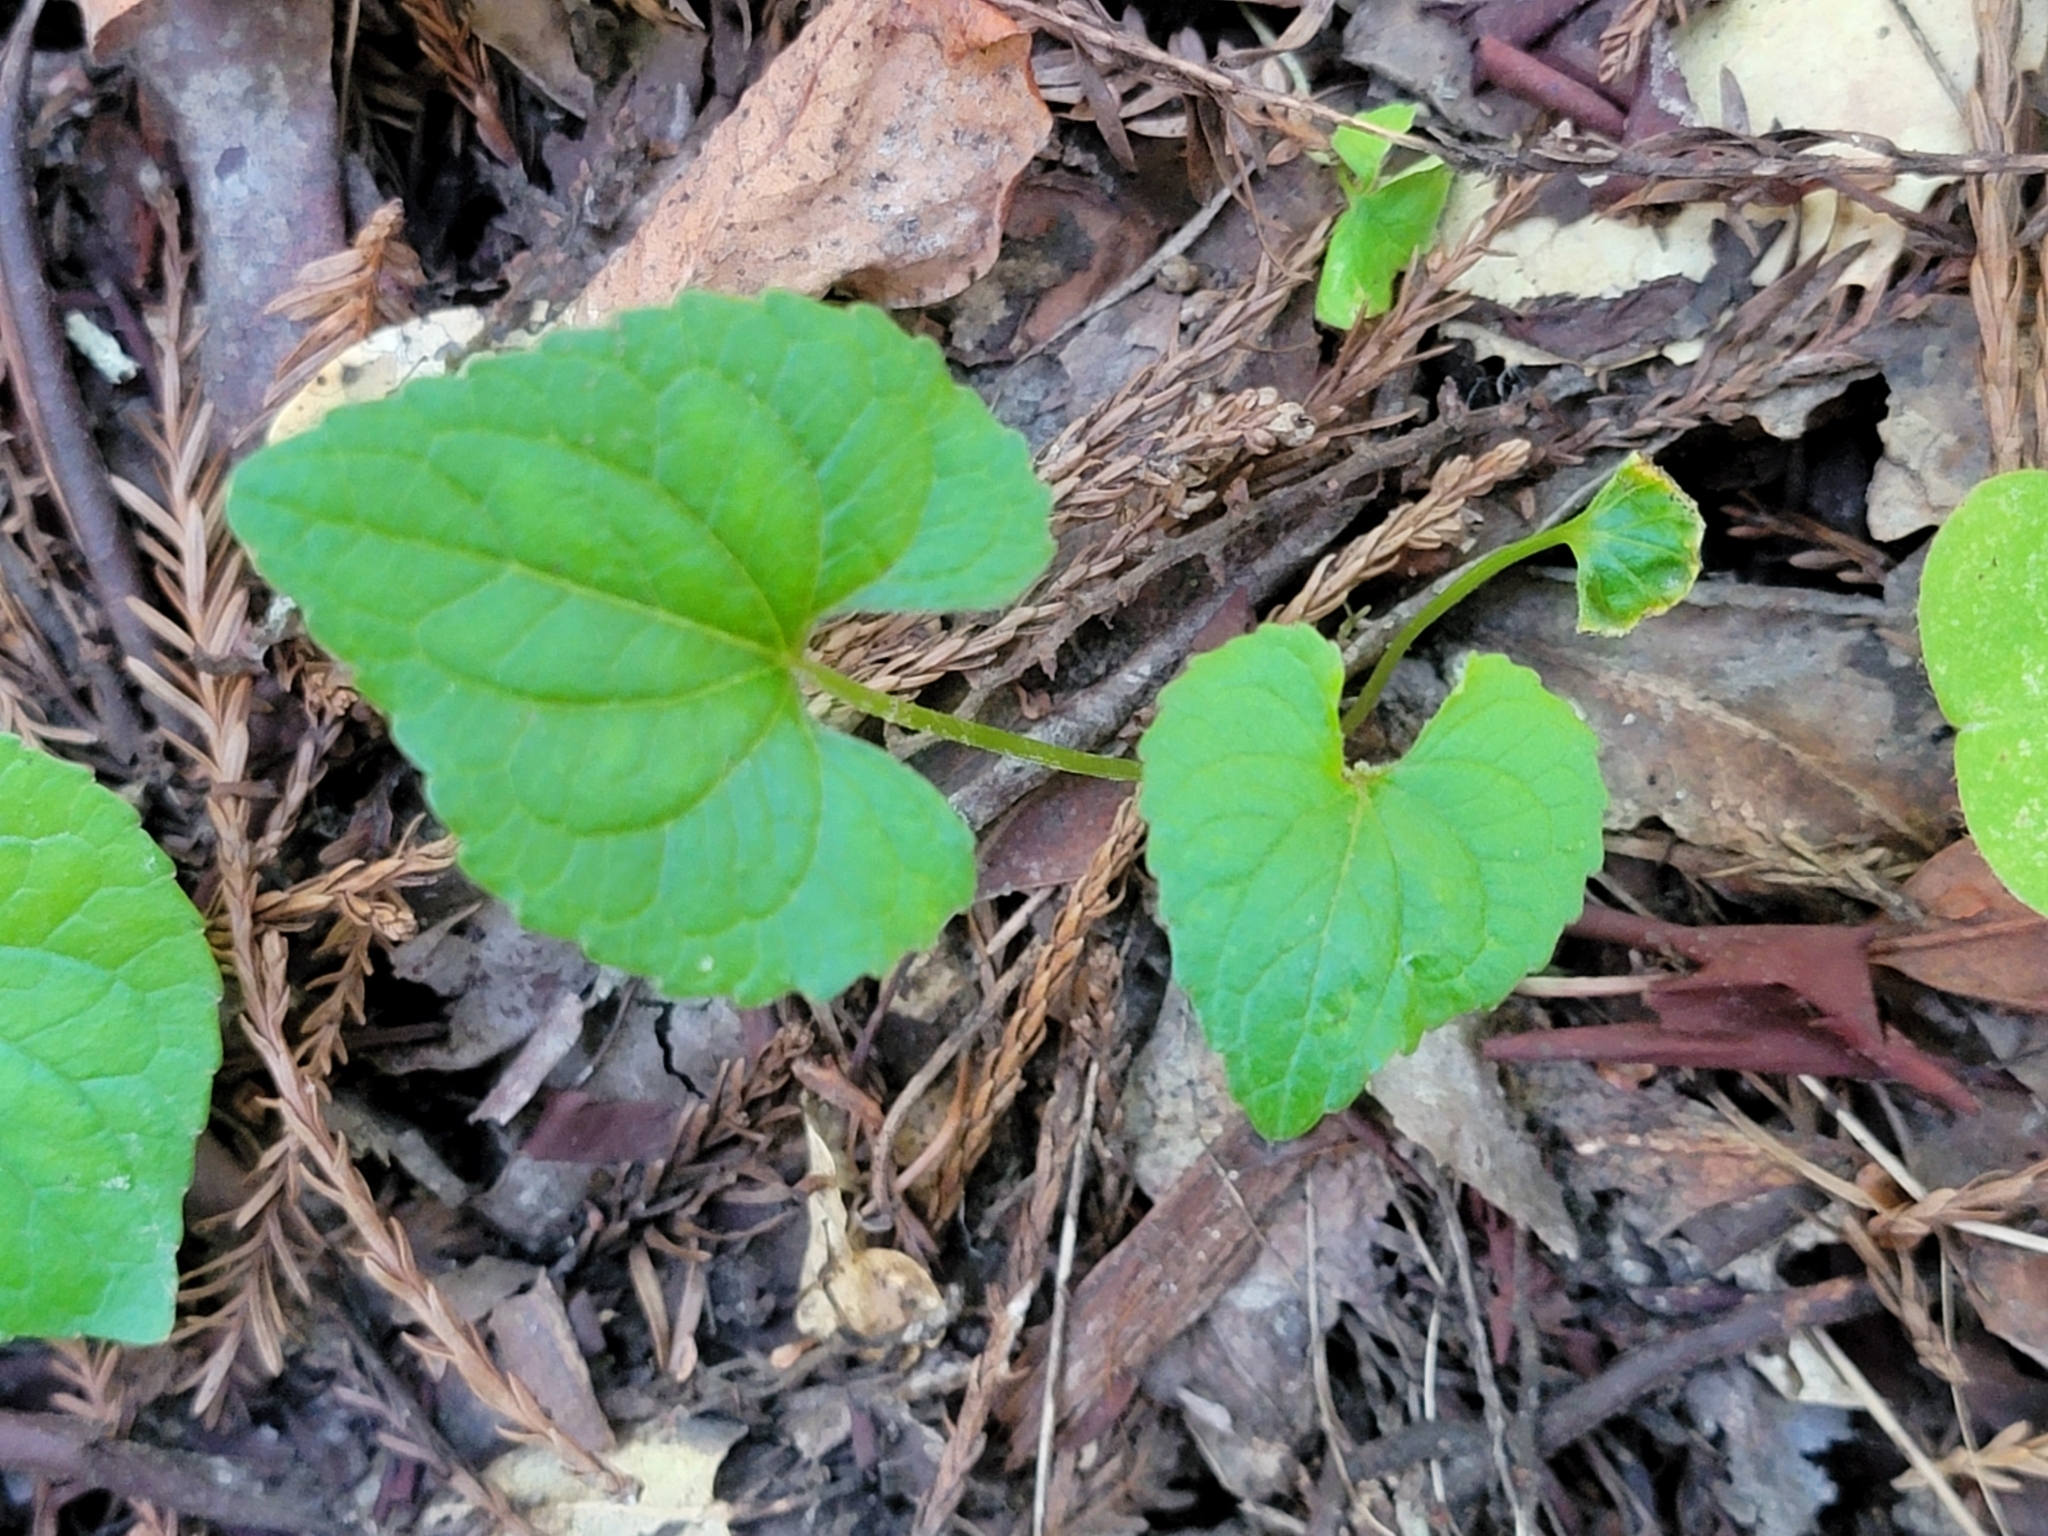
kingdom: Plantae
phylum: Tracheophyta
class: Magnoliopsida
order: Malpighiales
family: Violaceae
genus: Viola
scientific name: Viola ocellata
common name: Western heart's ease
